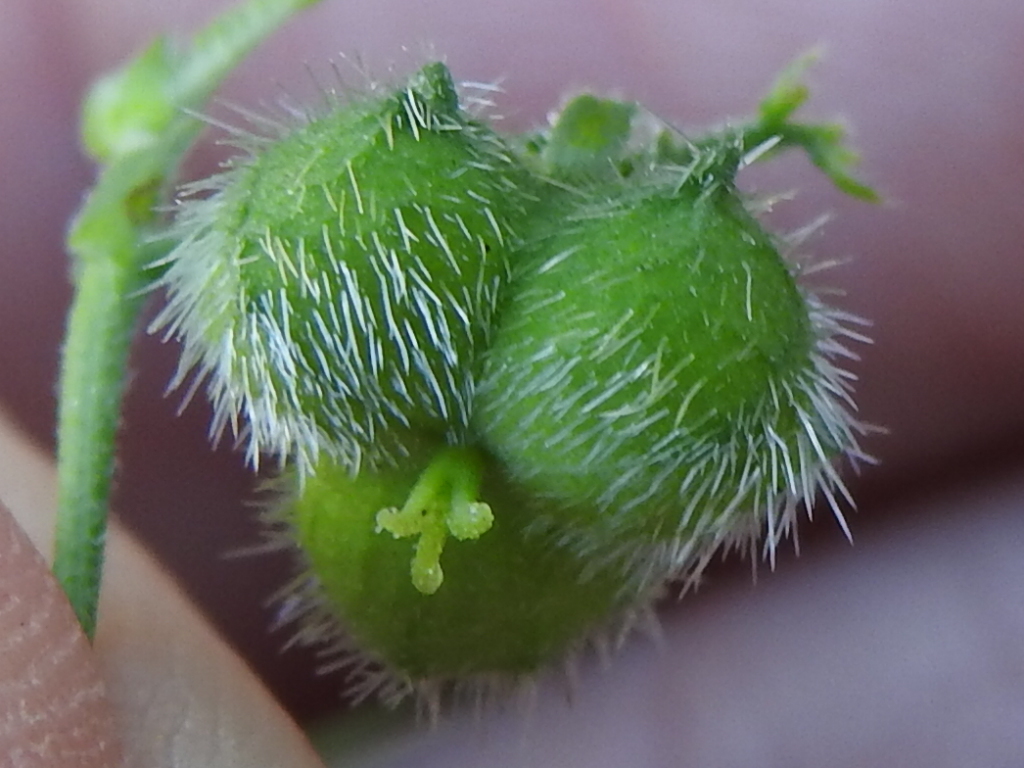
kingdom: Plantae
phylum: Tracheophyta
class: Magnoliopsida
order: Malpighiales
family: Euphorbiaceae
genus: Tragia
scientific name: Tragia urticifolia
